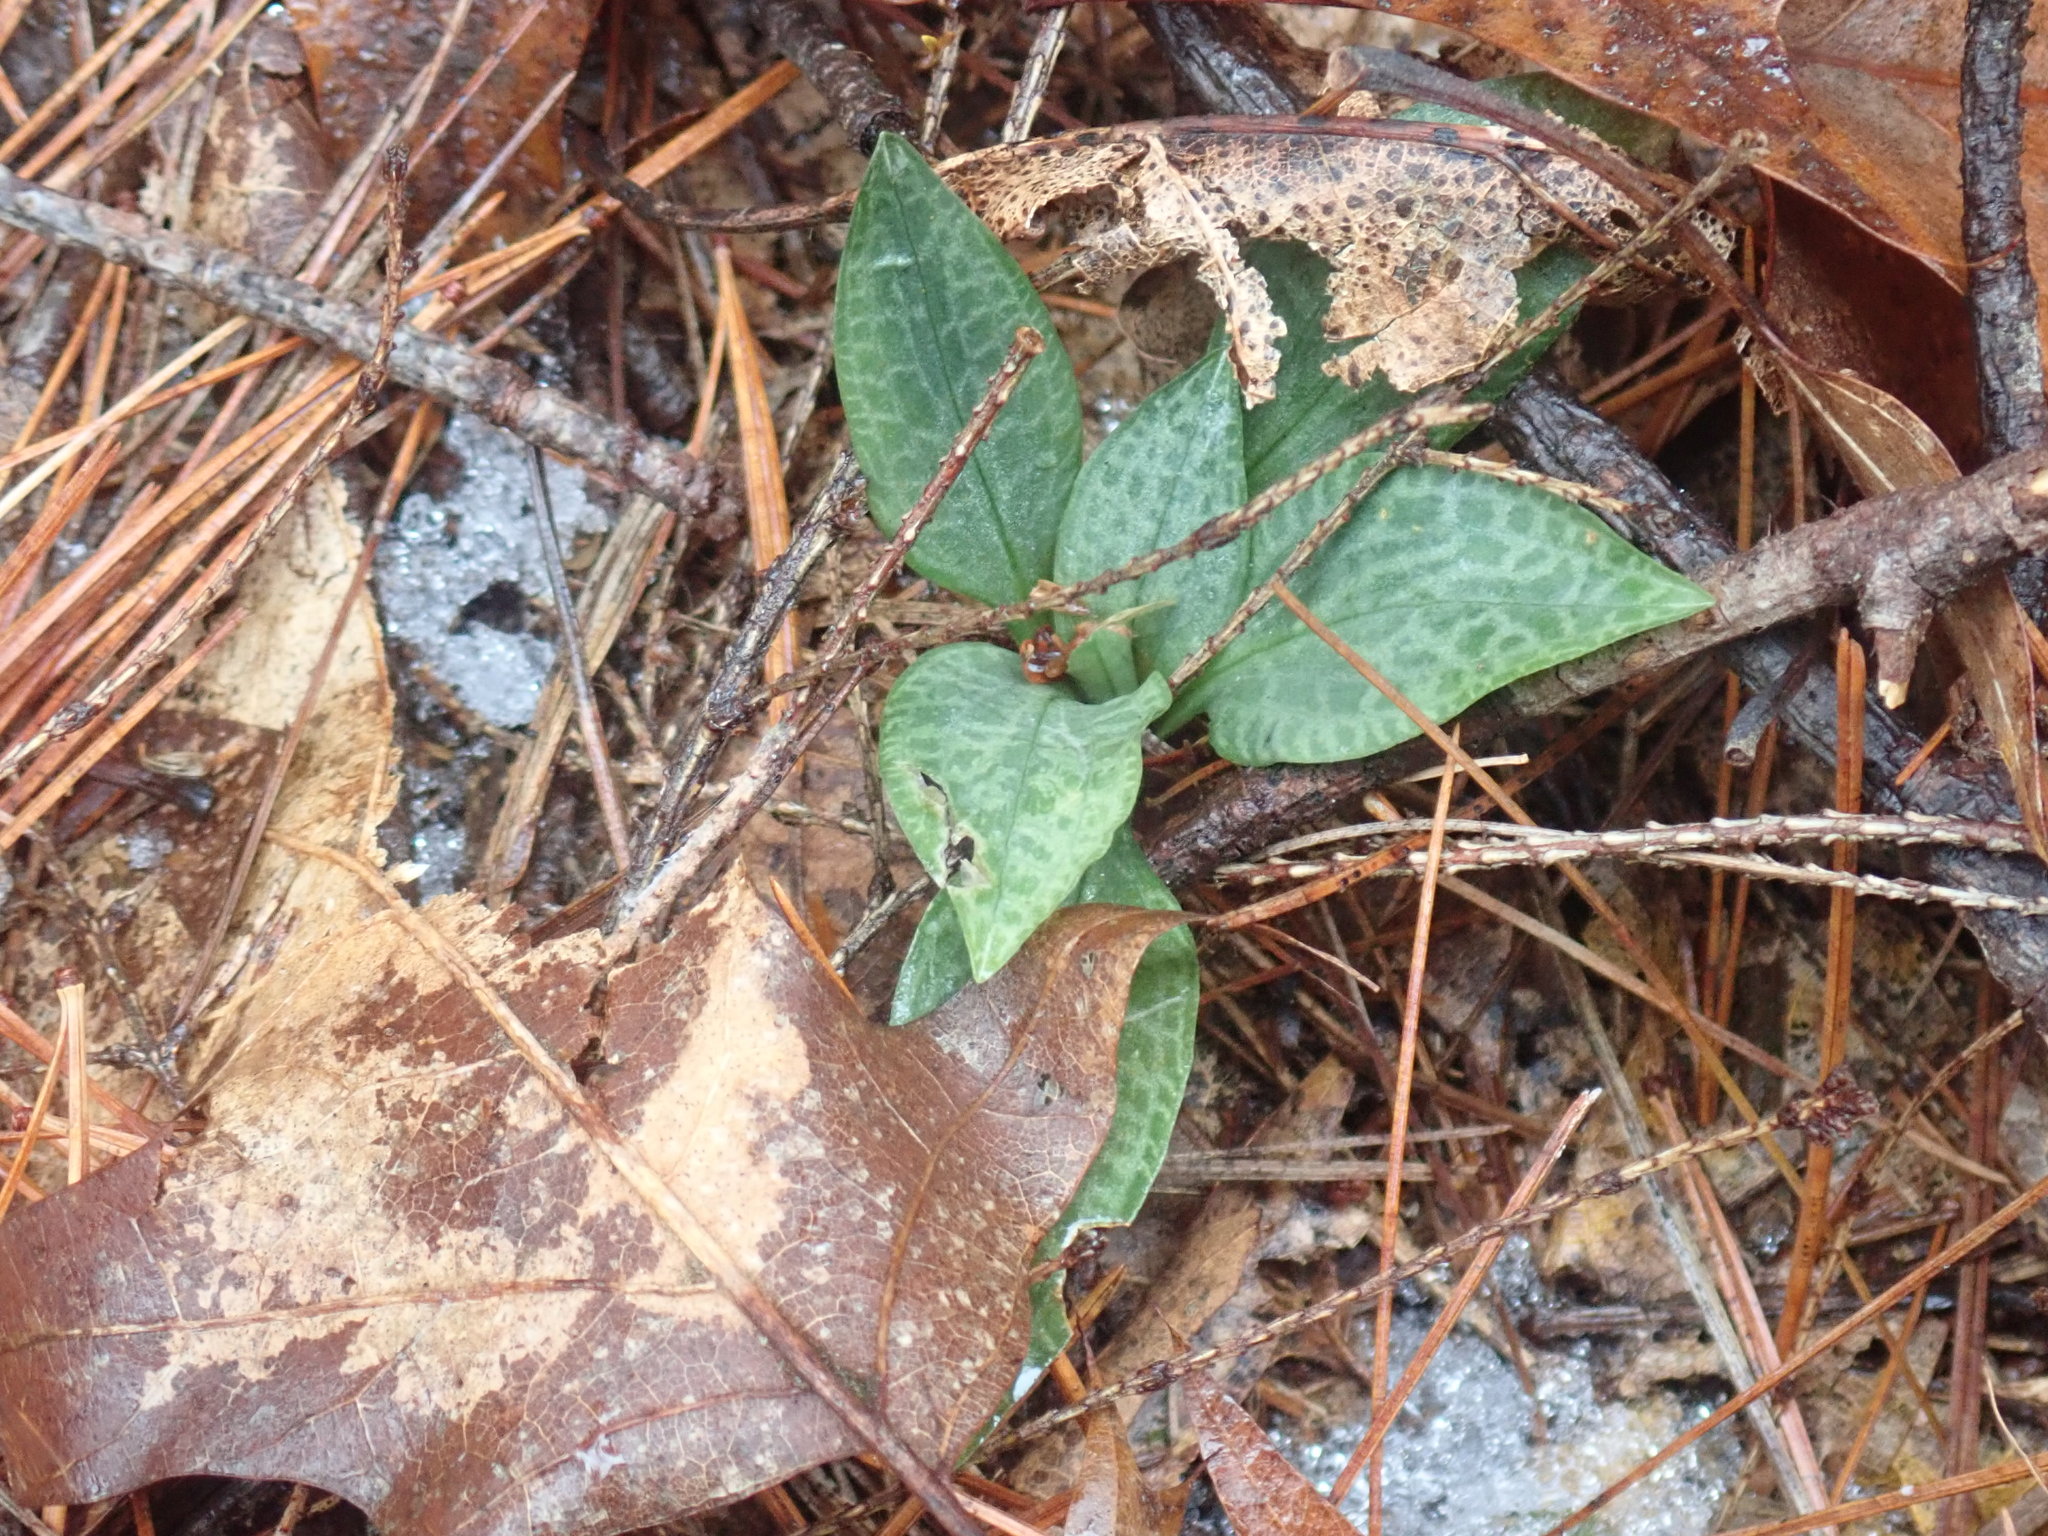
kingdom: Plantae
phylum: Tracheophyta
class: Liliopsida
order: Asparagales
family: Orchidaceae
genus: Goodyera
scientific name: Goodyera tesselata
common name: Checkered rattlesnake-plantain
